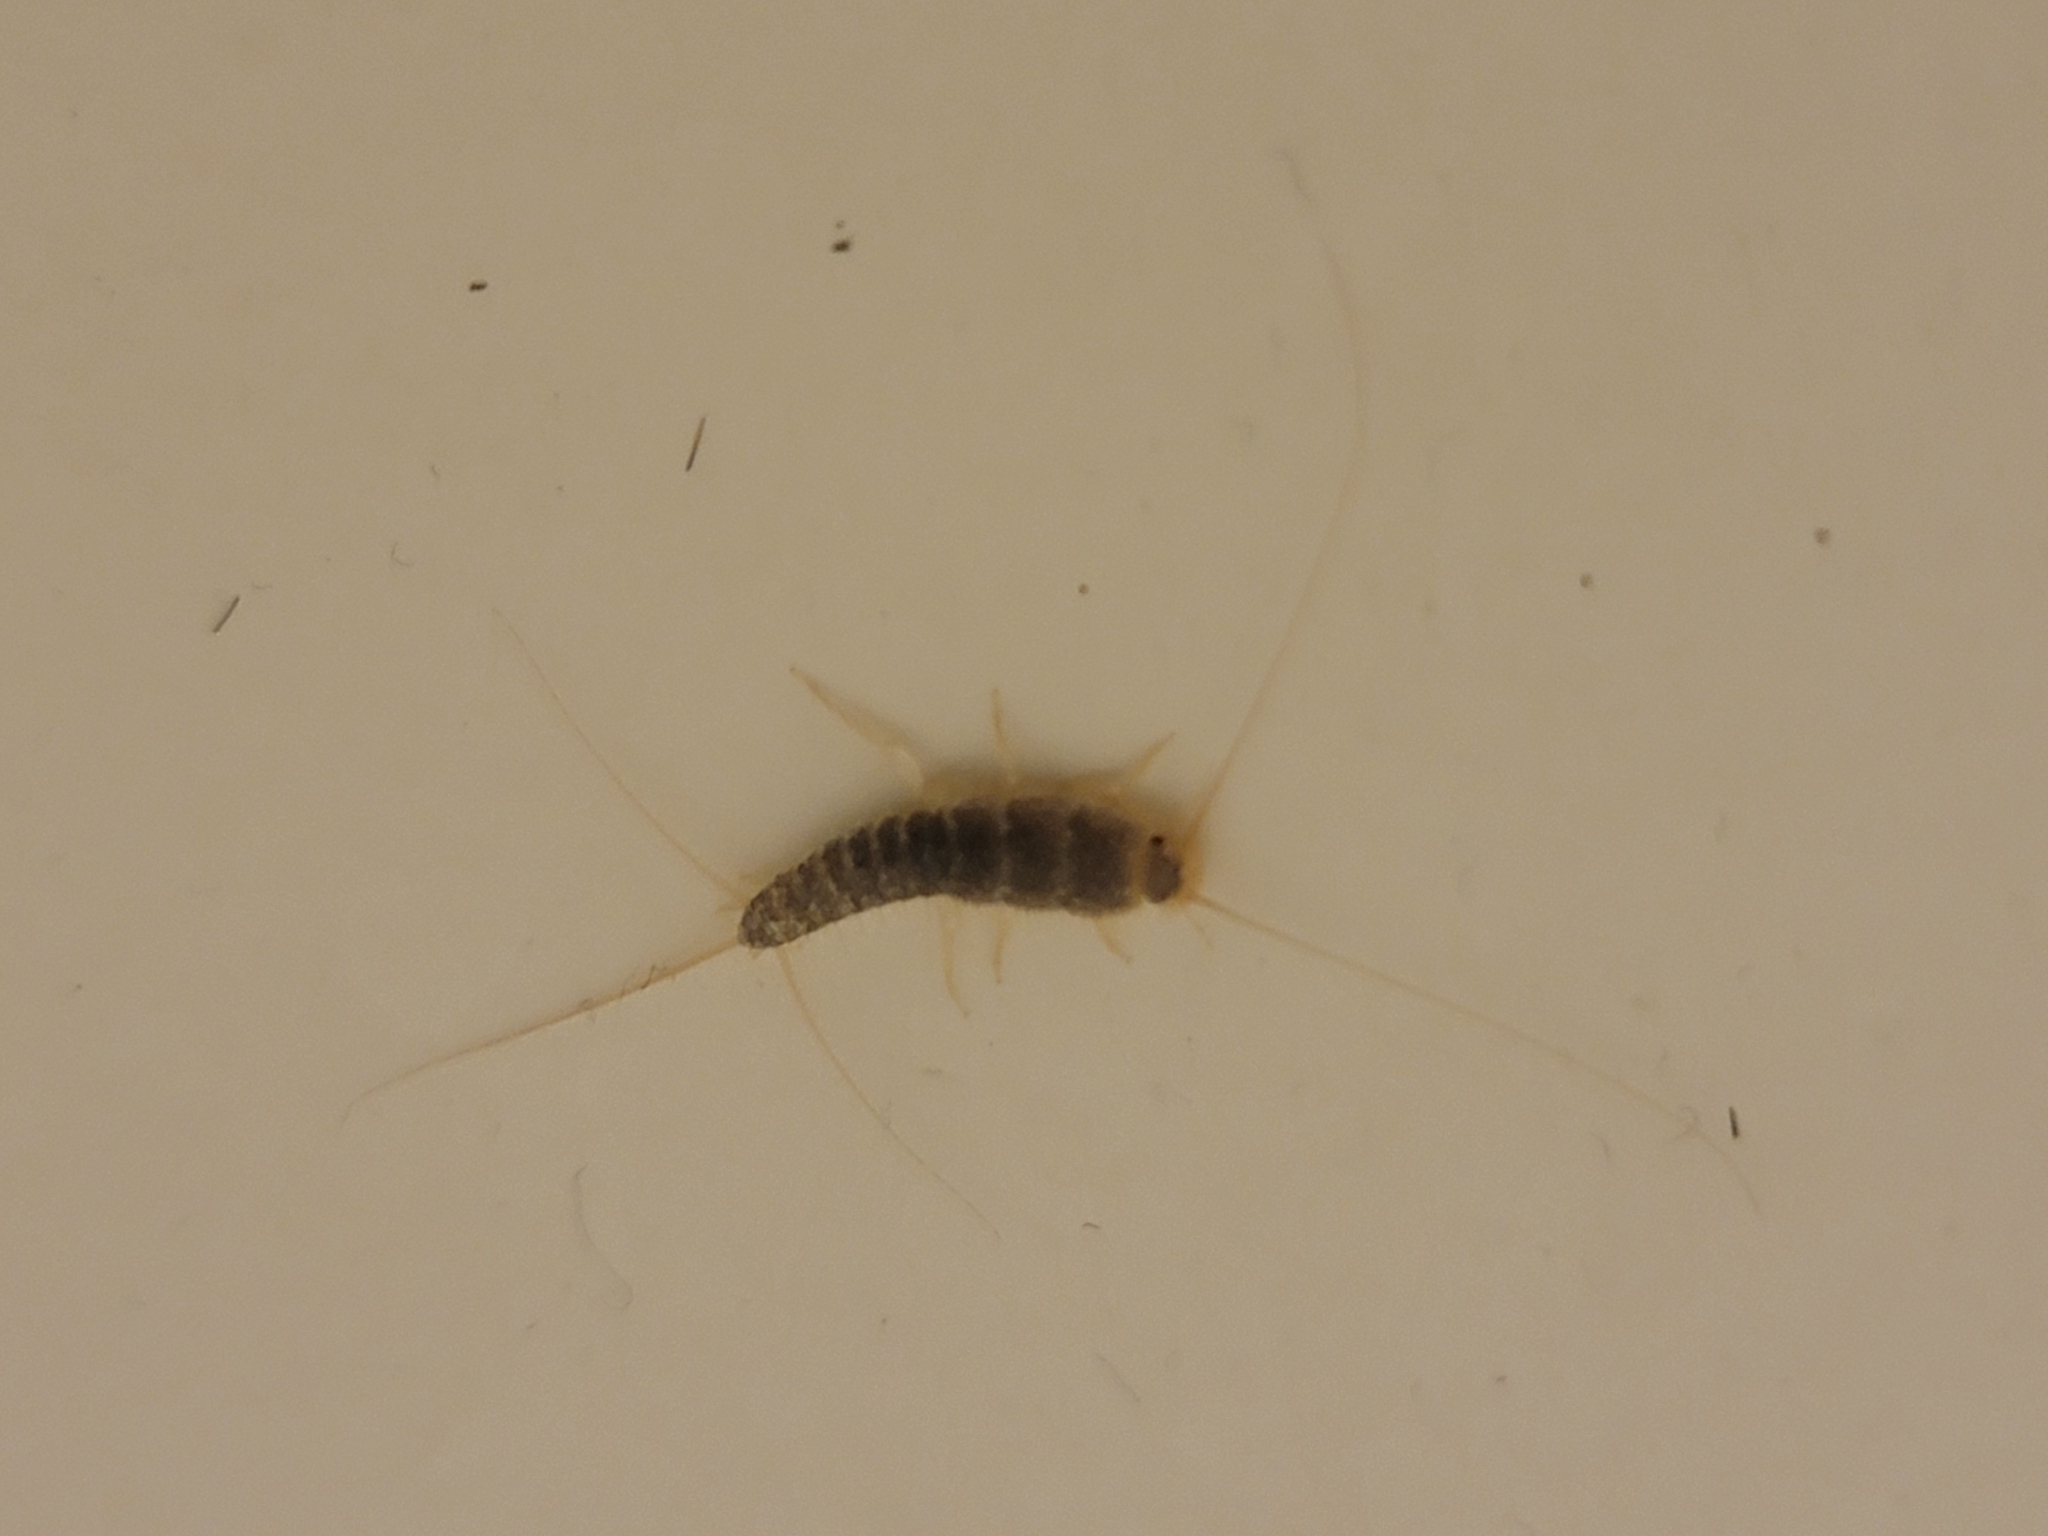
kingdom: Animalia
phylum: Arthropoda
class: Insecta
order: Zygentoma
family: Lepismatidae
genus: Ctenolepisma
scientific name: Ctenolepisma longicaudatum
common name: Silverfish
